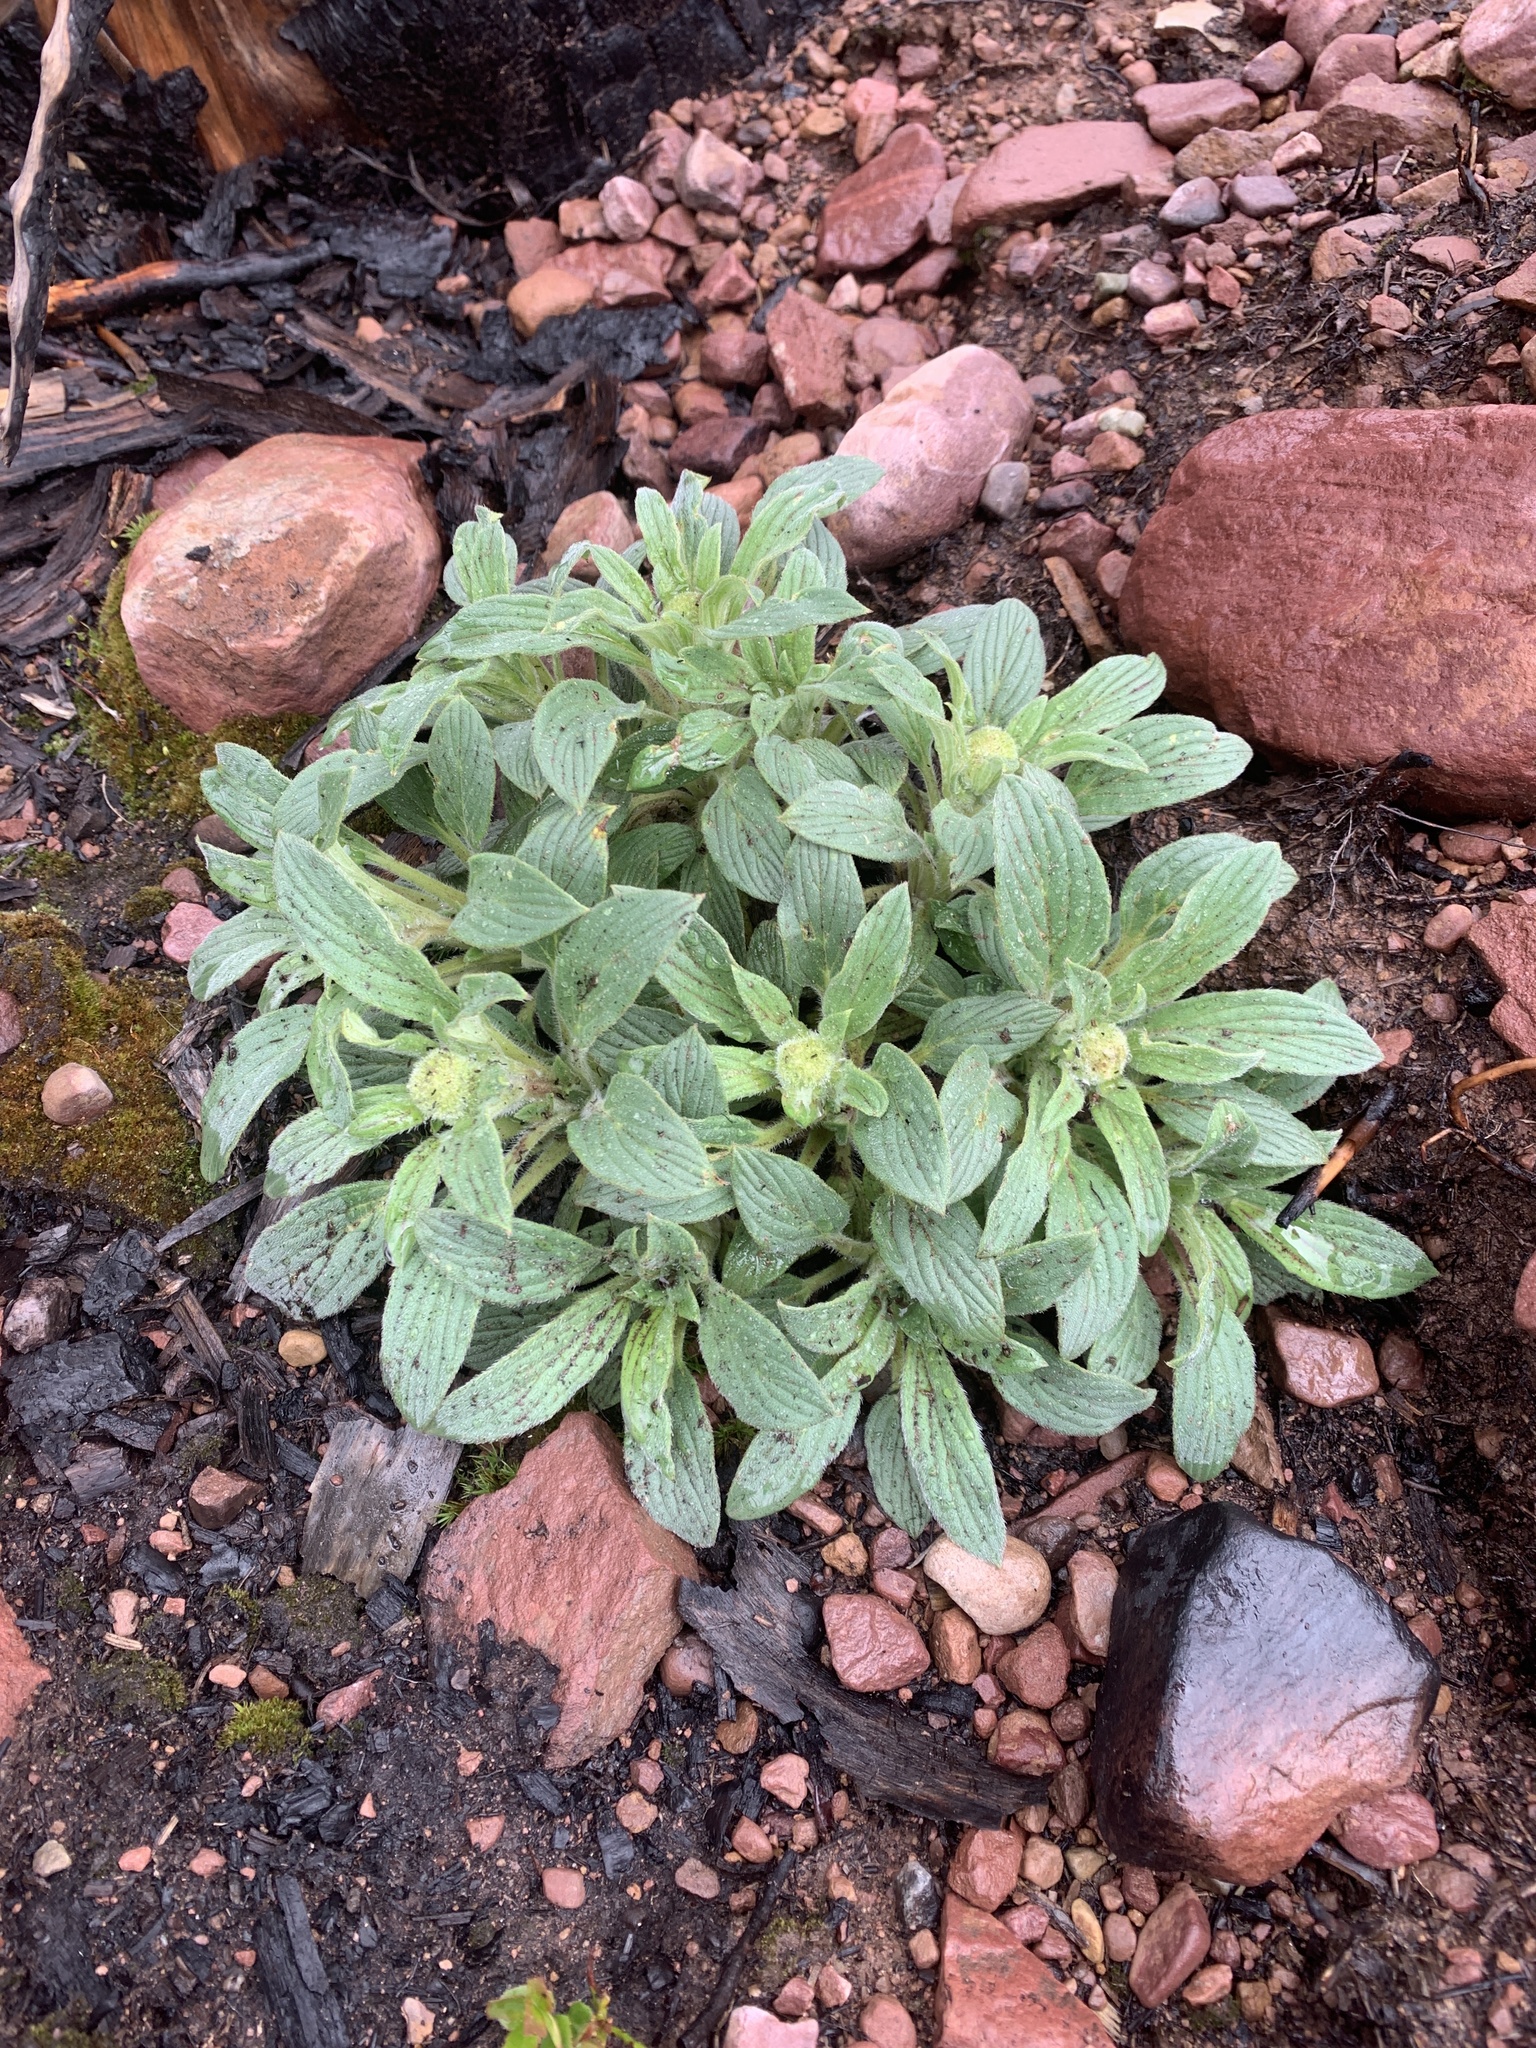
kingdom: Plantae
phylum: Tracheophyta
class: Magnoliopsida
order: Boraginales
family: Hydrophyllaceae
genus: Phacelia
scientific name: Phacelia hastata
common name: Silver-leaved phacelia
